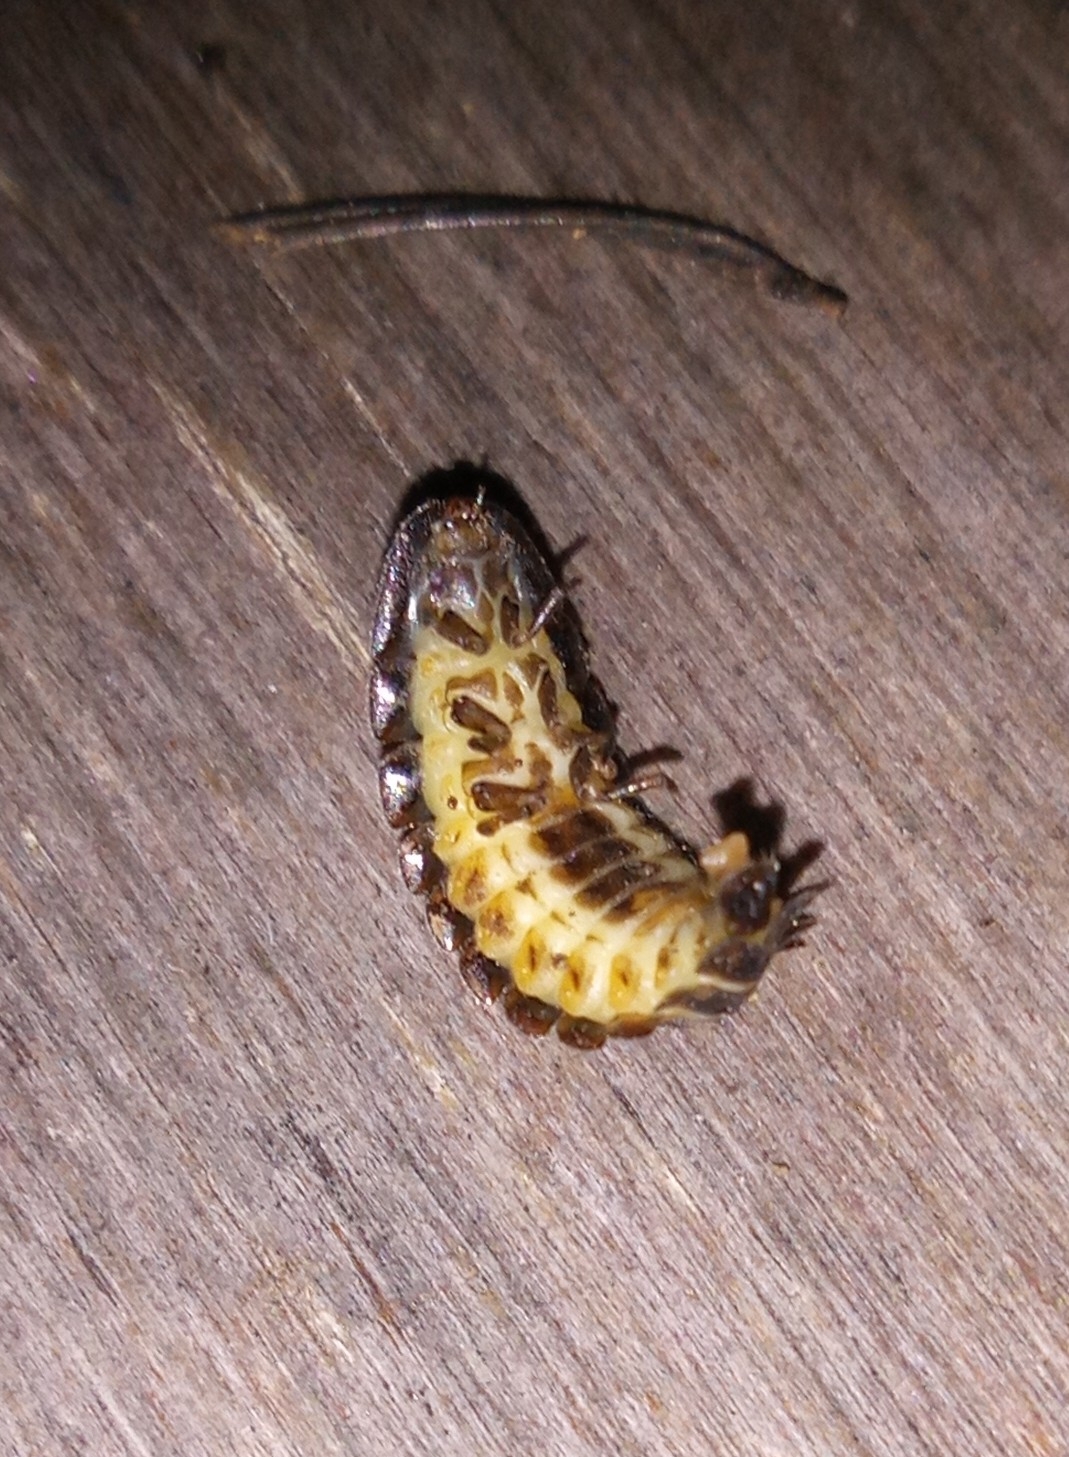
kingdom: Animalia
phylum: Arthropoda
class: Insecta
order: Coleoptera
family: Lampyridae
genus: Lamprohiza
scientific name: Lamprohiza splendidula
